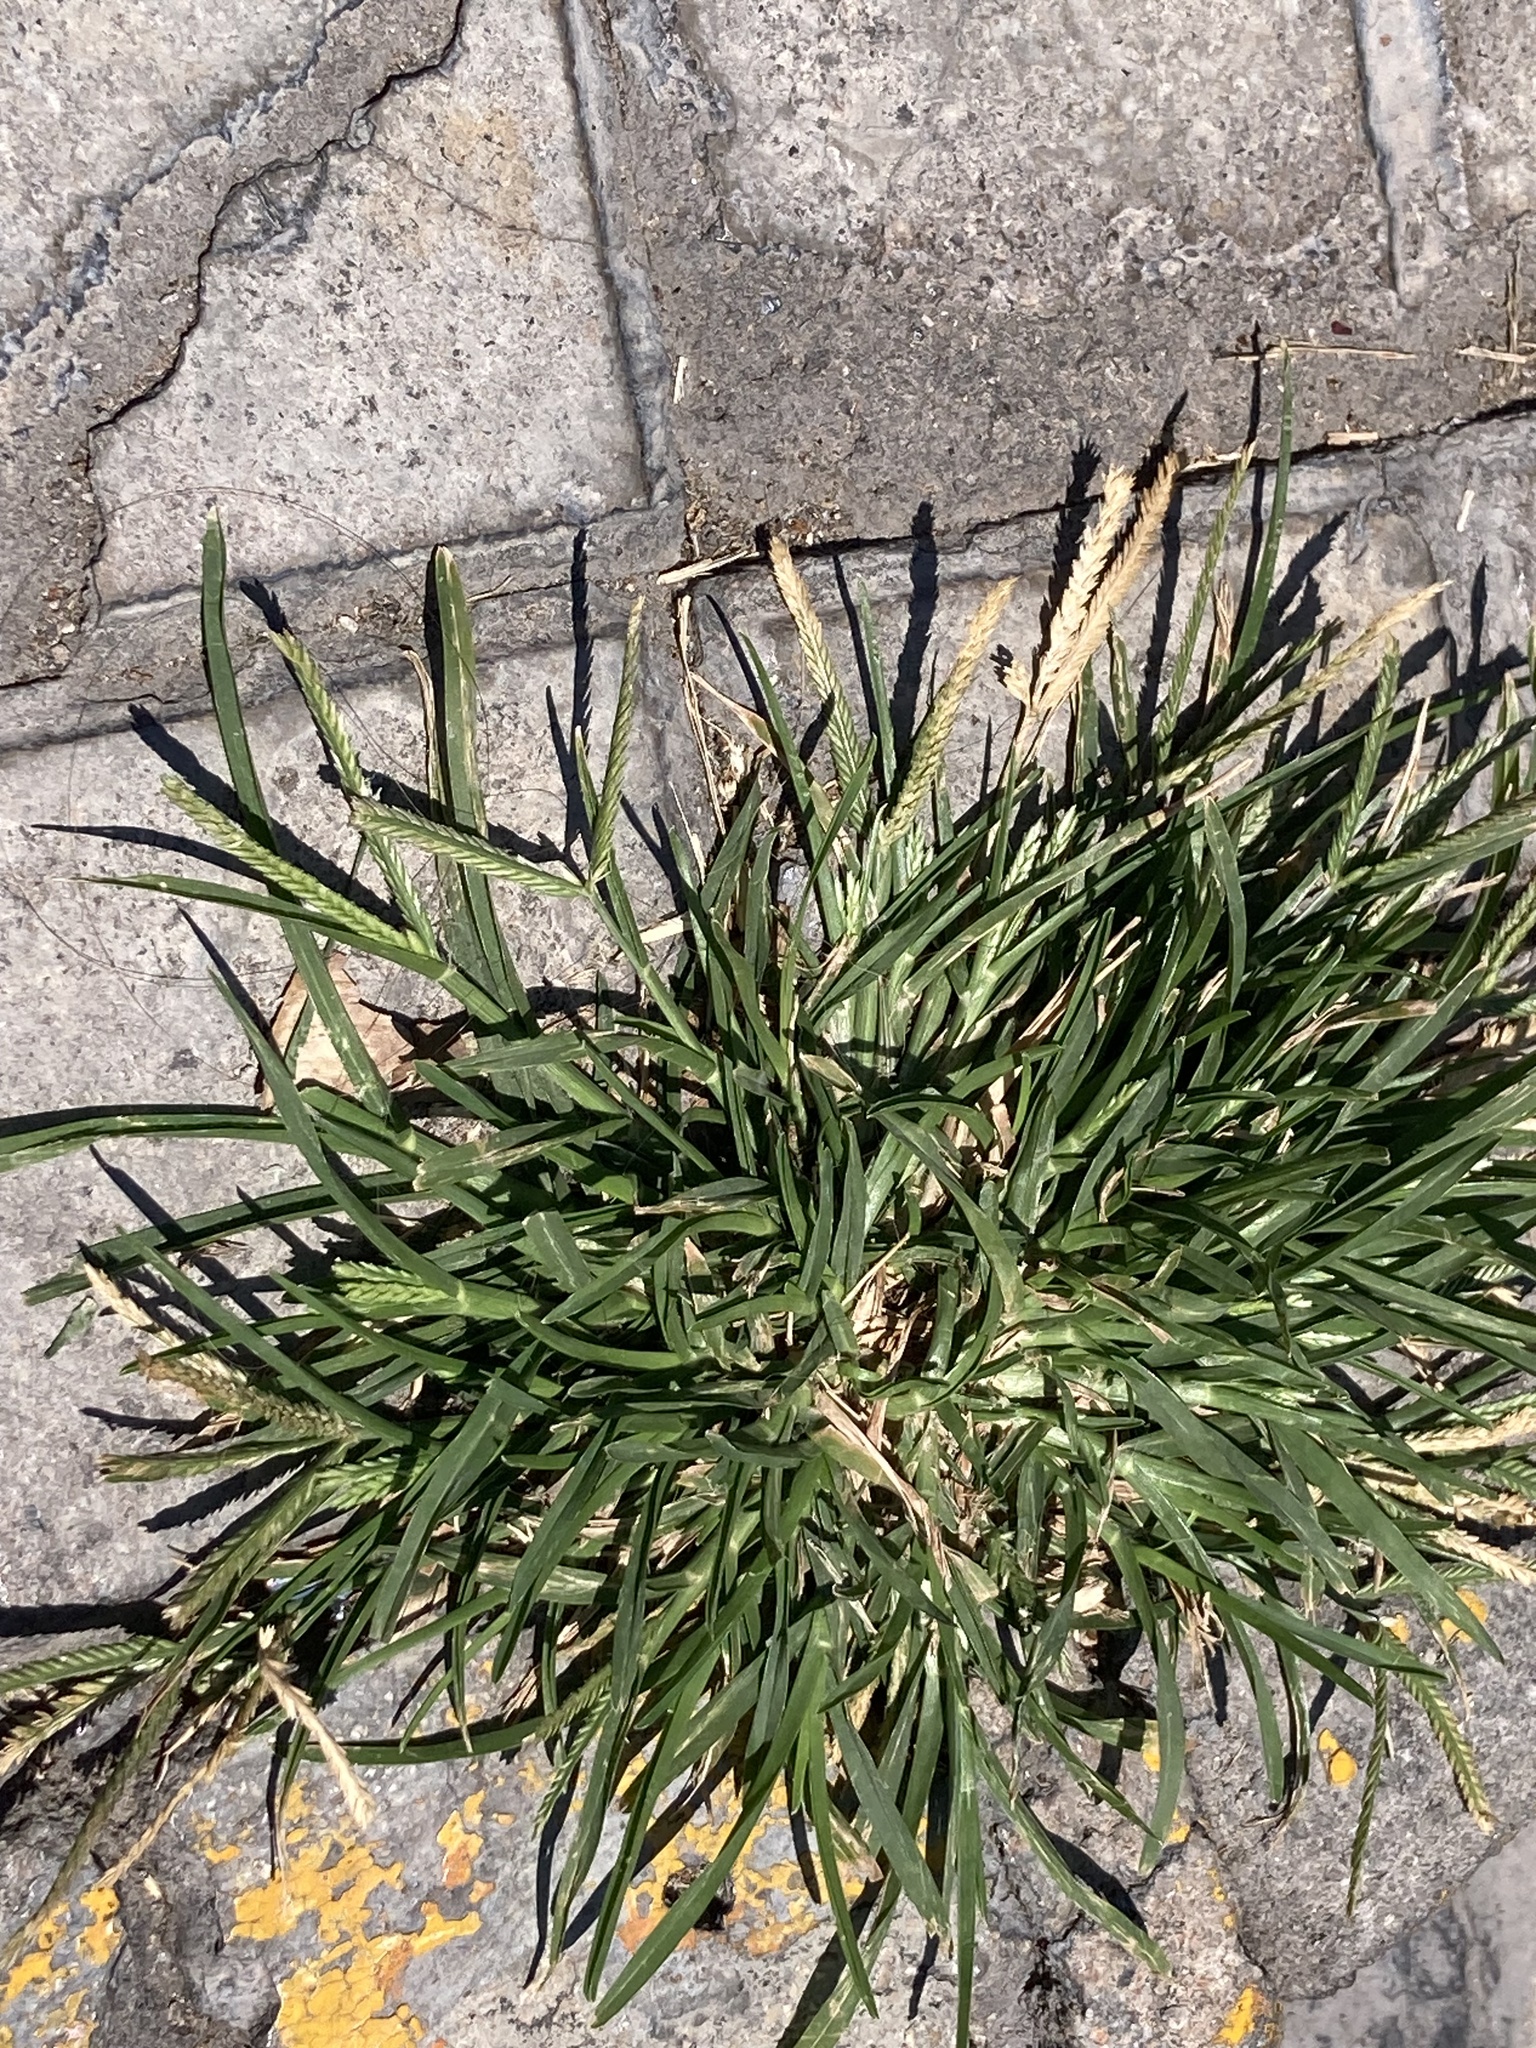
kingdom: Plantae
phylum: Tracheophyta
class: Liliopsida
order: Poales
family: Poaceae
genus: Eleusine
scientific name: Eleusine indica
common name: Yard-grass
